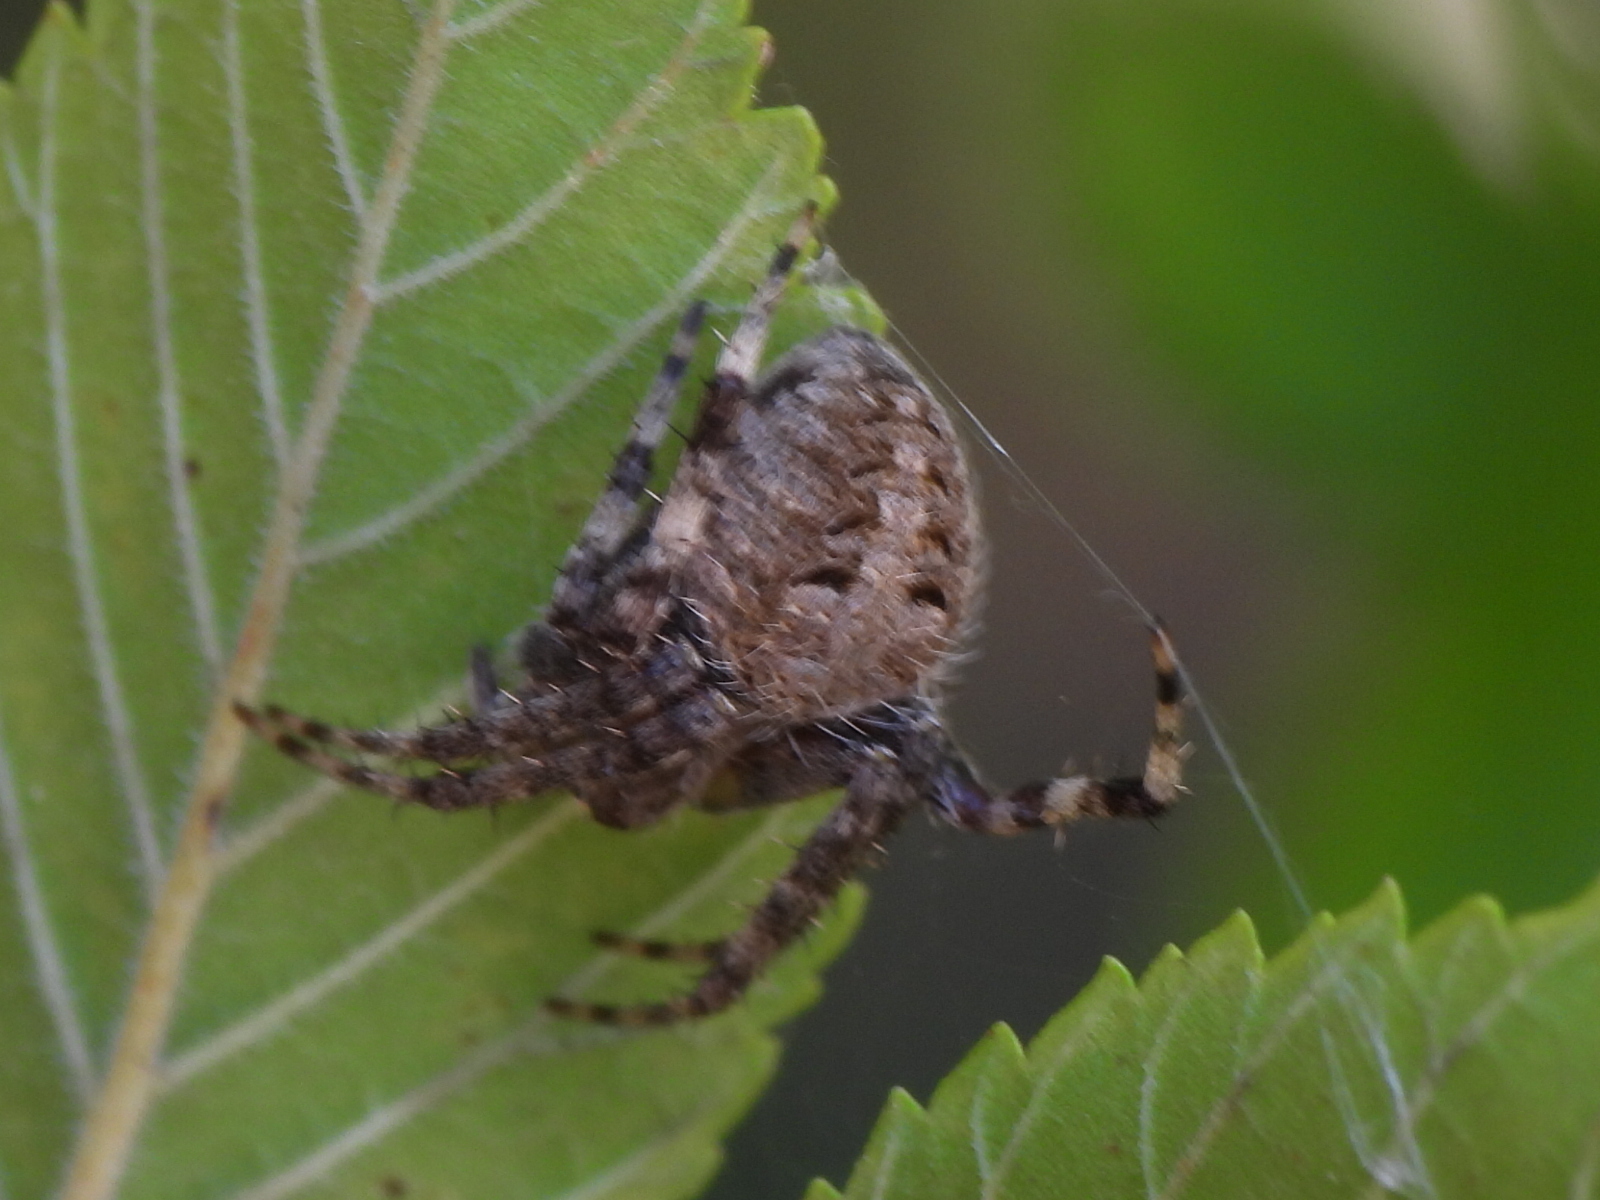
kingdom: Animalia
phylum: Arthropoda
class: Arachnida
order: Araneae
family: Araneidae
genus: Neoscona
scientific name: Neoscona crucifera
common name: Spotted orbweaver
